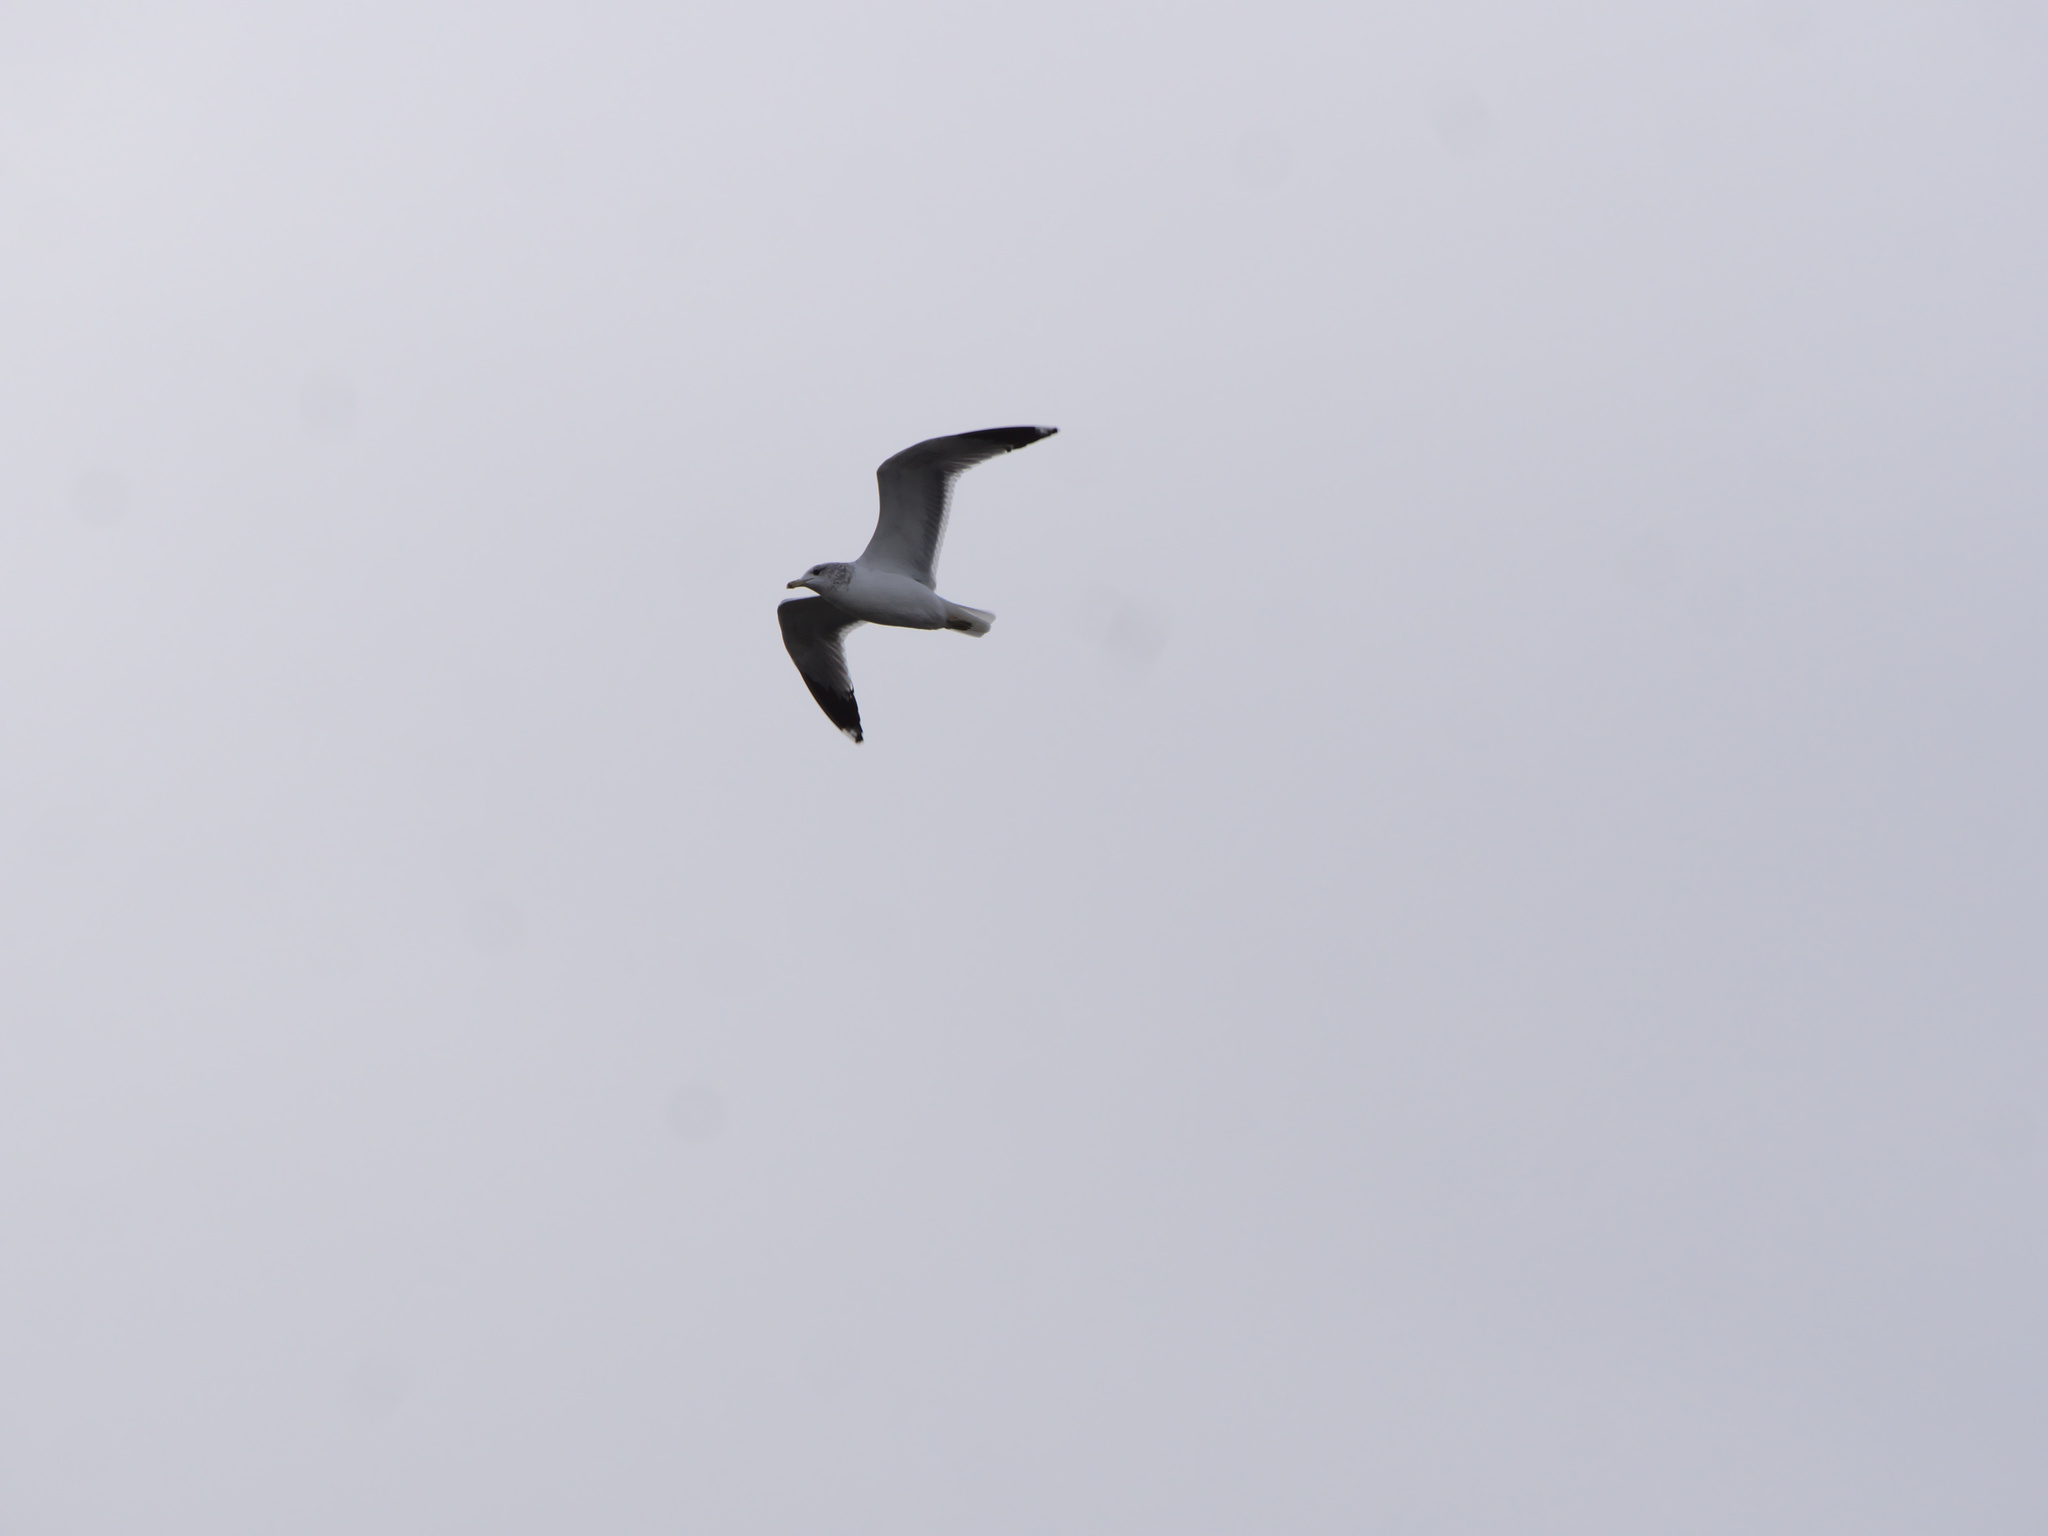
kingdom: Animalia
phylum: Chordata
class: Aves
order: Charadriiformes
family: Laridae
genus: Larus
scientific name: Larus californicus
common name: California gull
